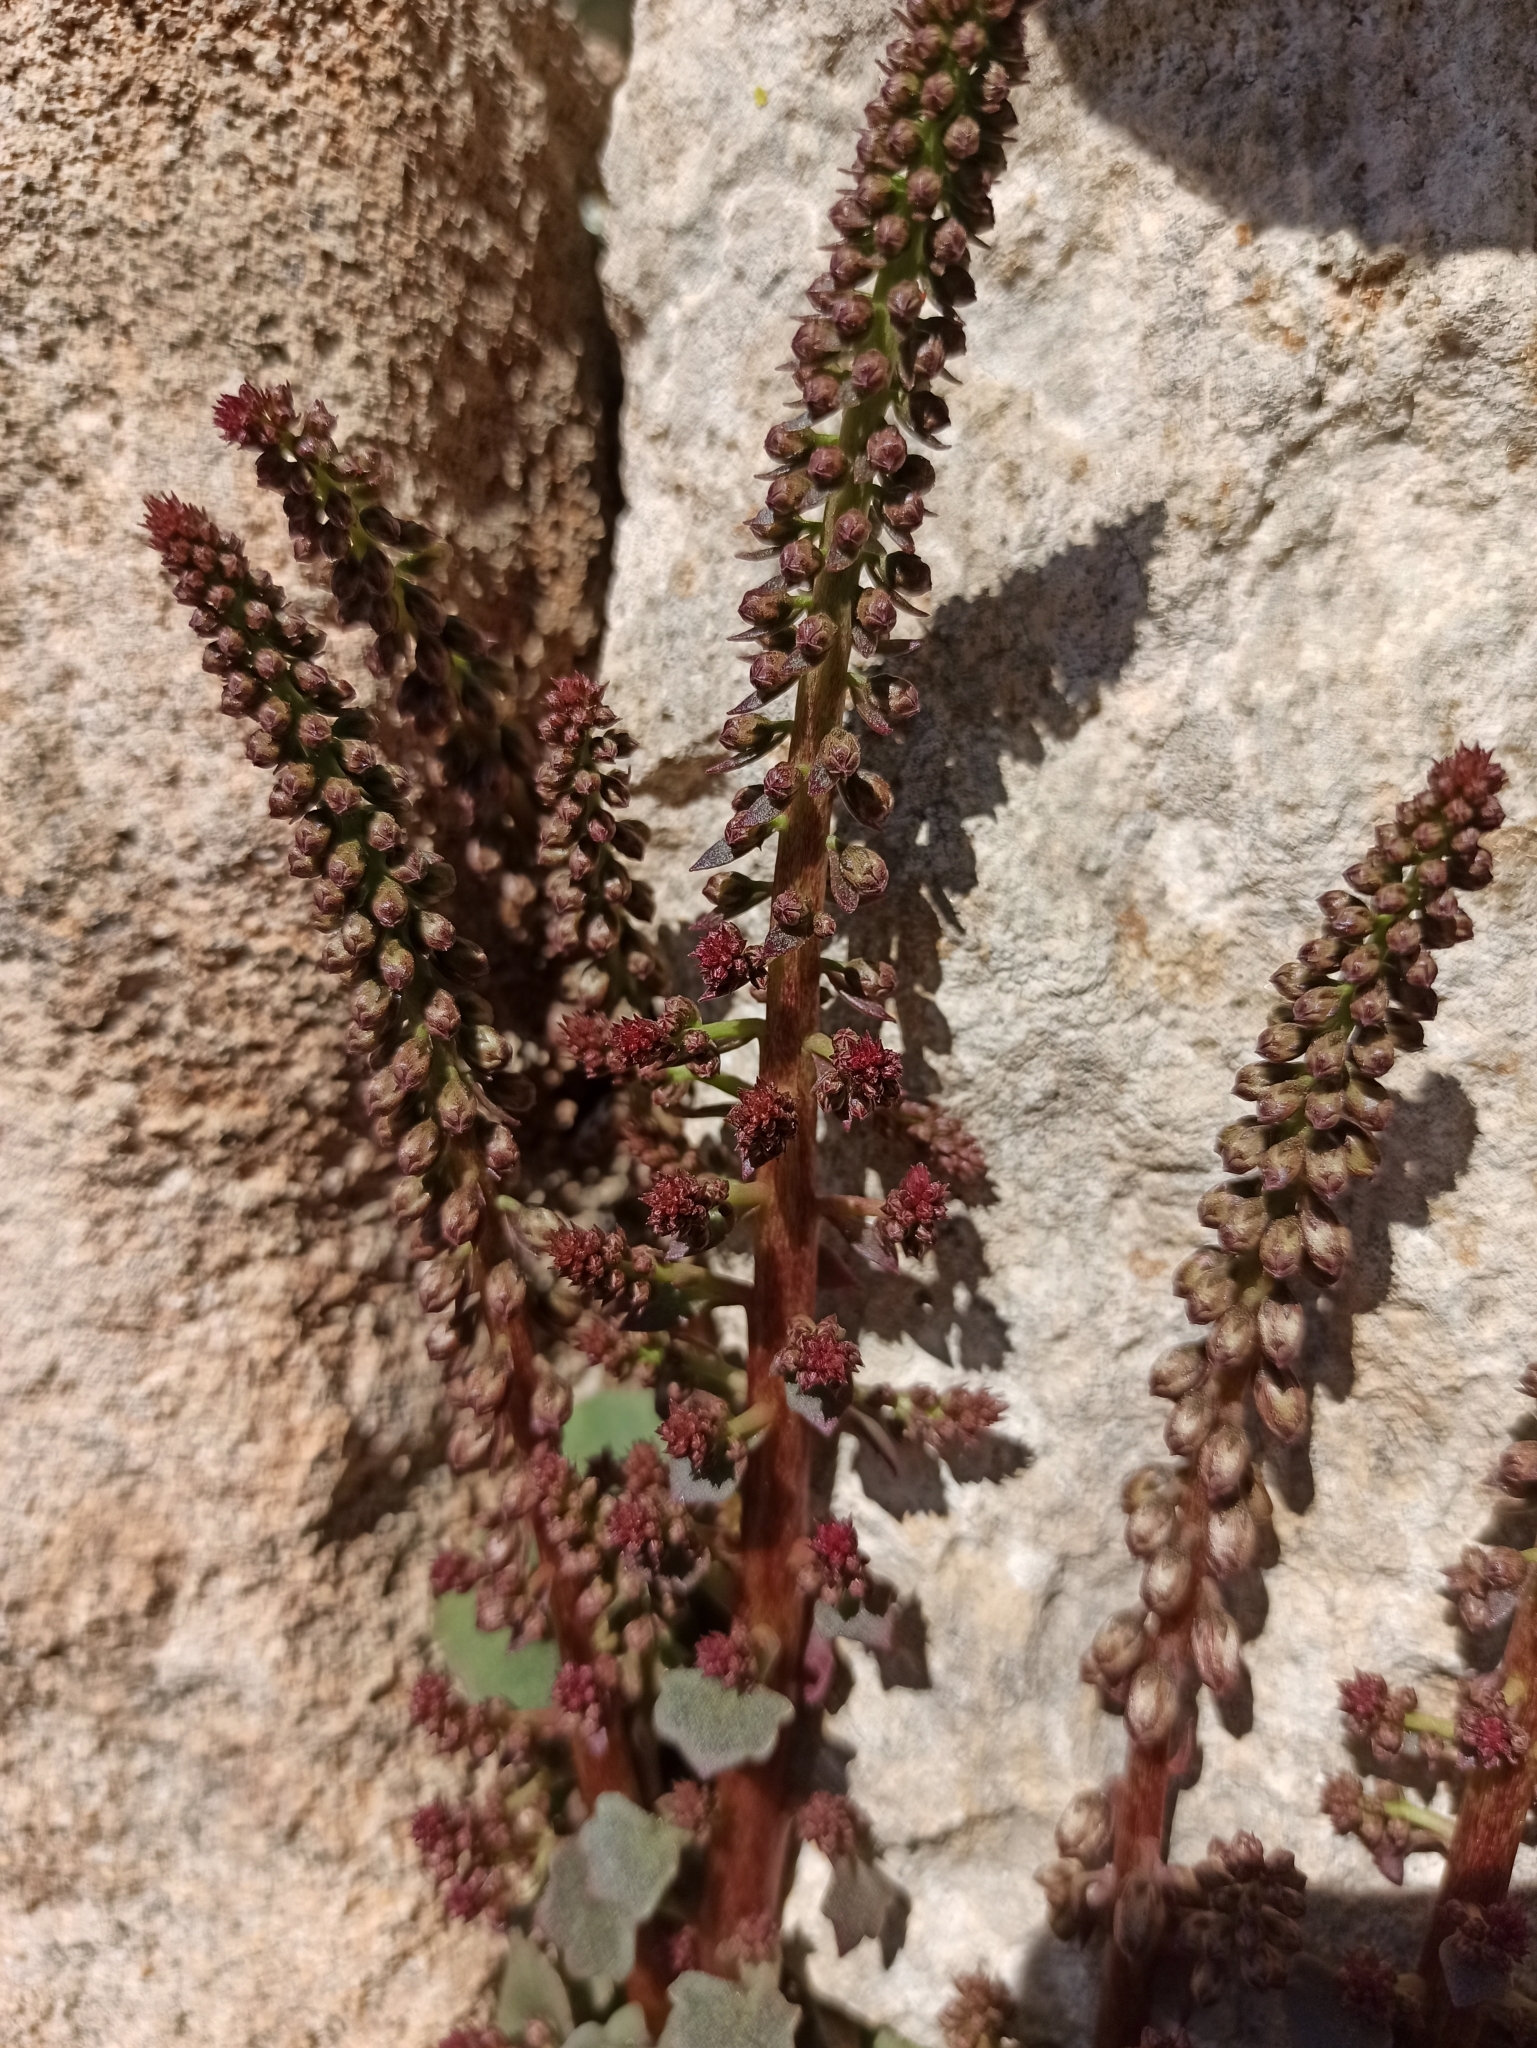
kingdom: Plantae
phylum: Tracheophyta
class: Magnoliopsida
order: Saxifragales
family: Crassulaceae
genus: Umbilicus
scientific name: Umbilicus rupestris
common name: Navelwort
